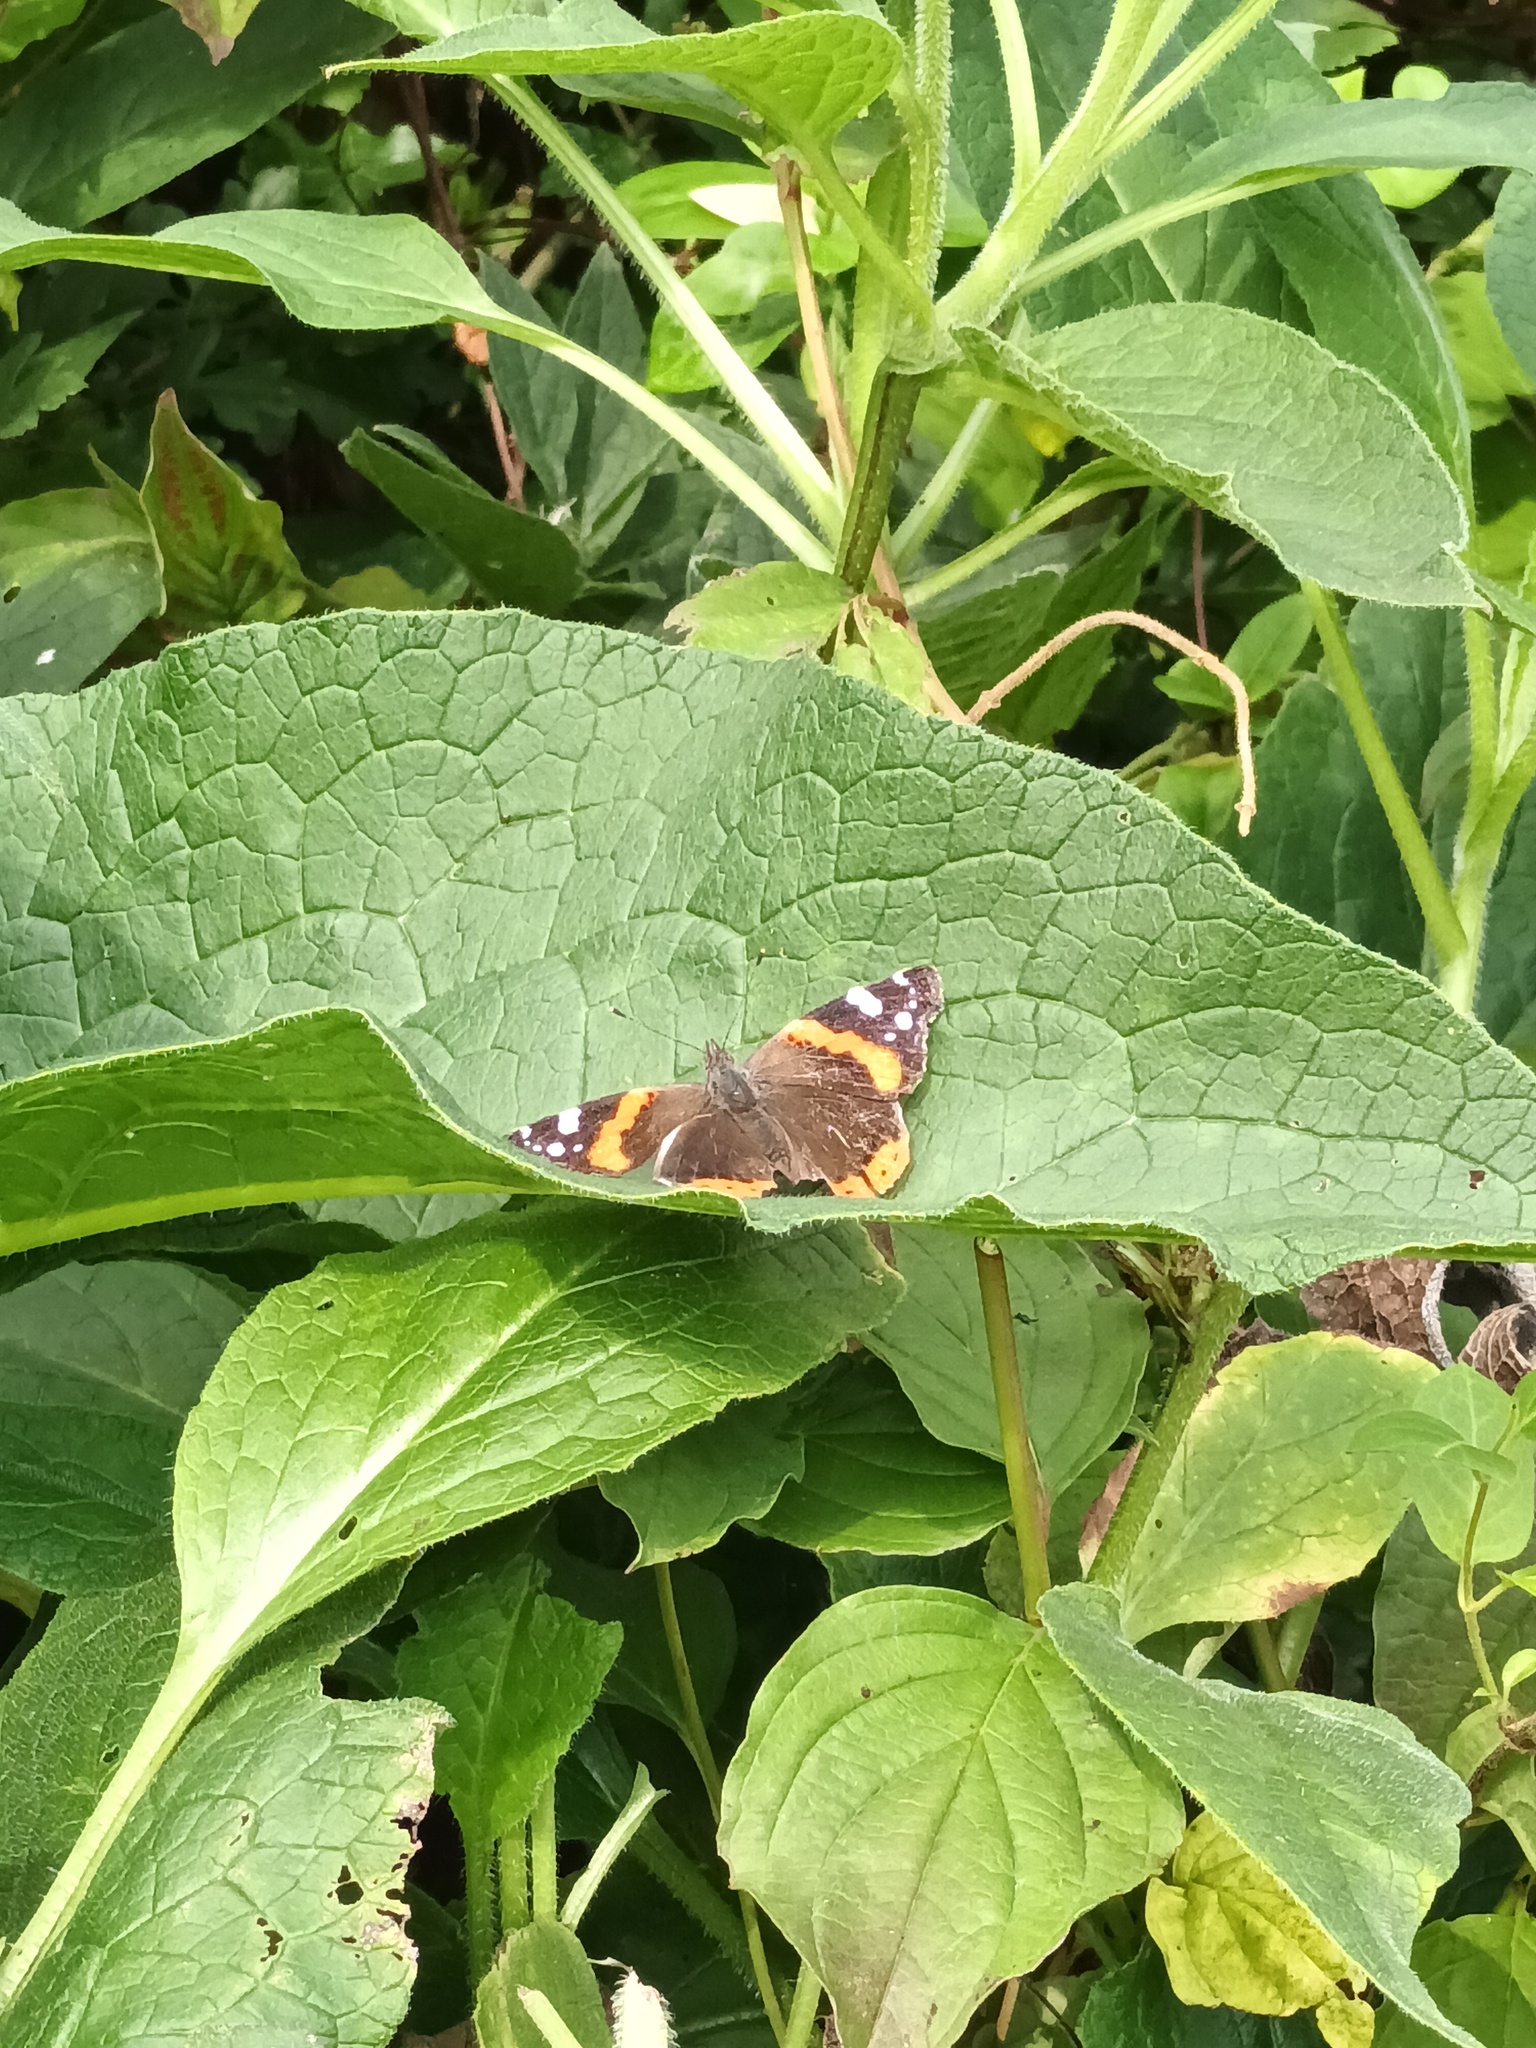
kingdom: Animalia
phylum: Arthropoda
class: Insecta
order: Lepidoptera
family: Nymphalidae
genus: Vanessa
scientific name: Vanessa atalanta
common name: Red admiral
